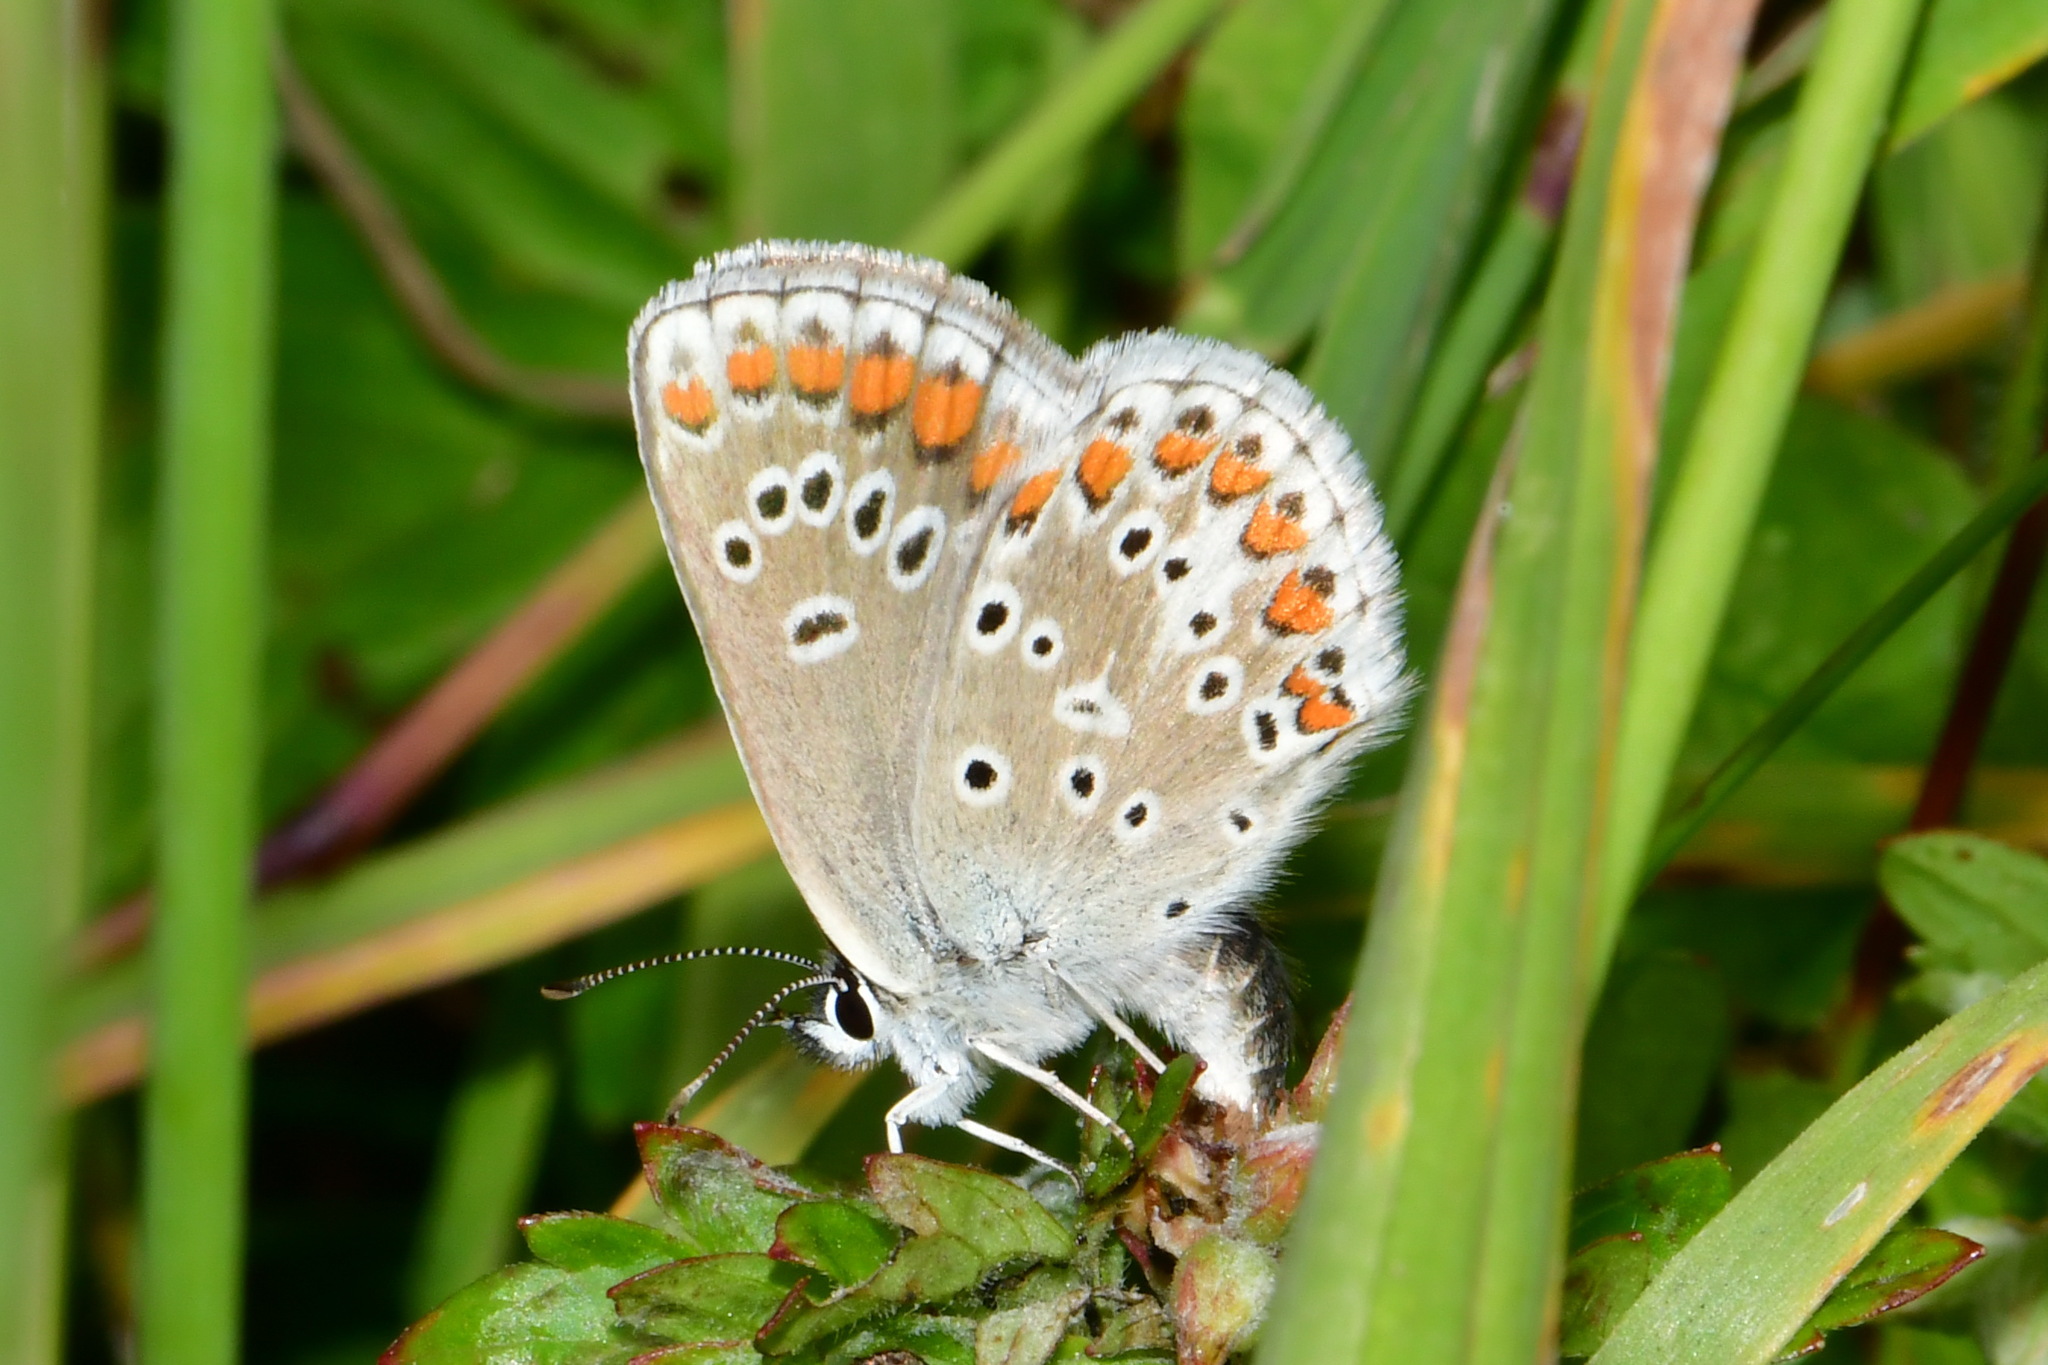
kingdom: Animalia
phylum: Arthropoda
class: Insecta
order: Lepidoptera
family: Lycaenidae
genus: Aricia
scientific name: Aricia artaxerxes
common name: Northern brown argus
